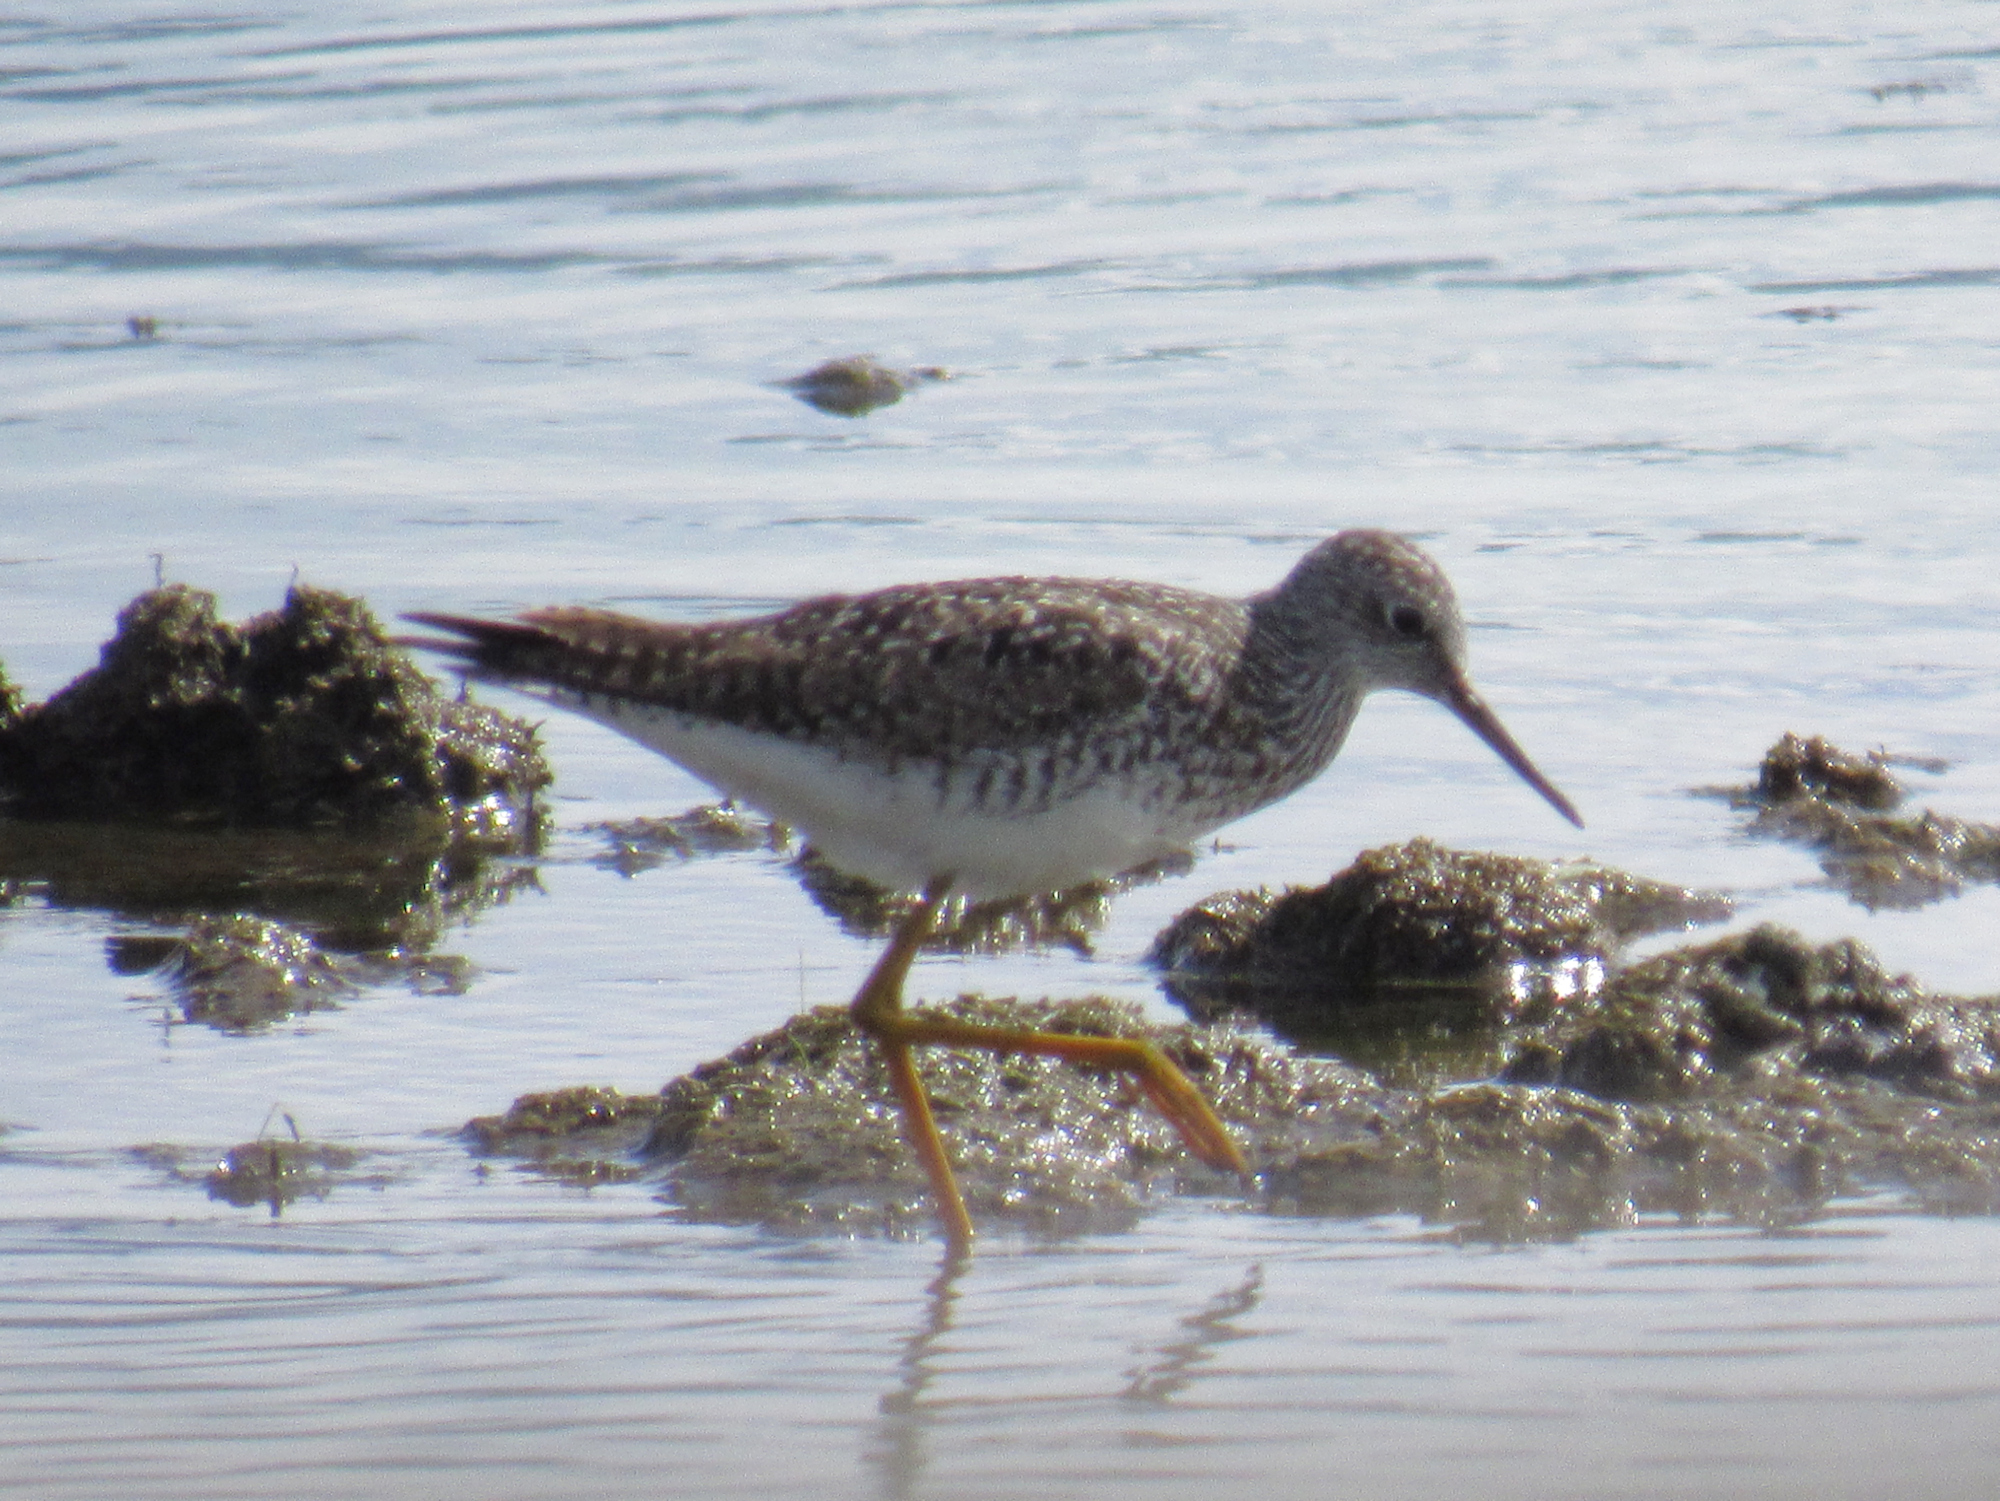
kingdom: Animalia
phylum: Chordata
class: Aves
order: Charadriiformes
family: Scolopacidae
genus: Tringa
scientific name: Tringa flavipes
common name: Lesser yellowlegs
